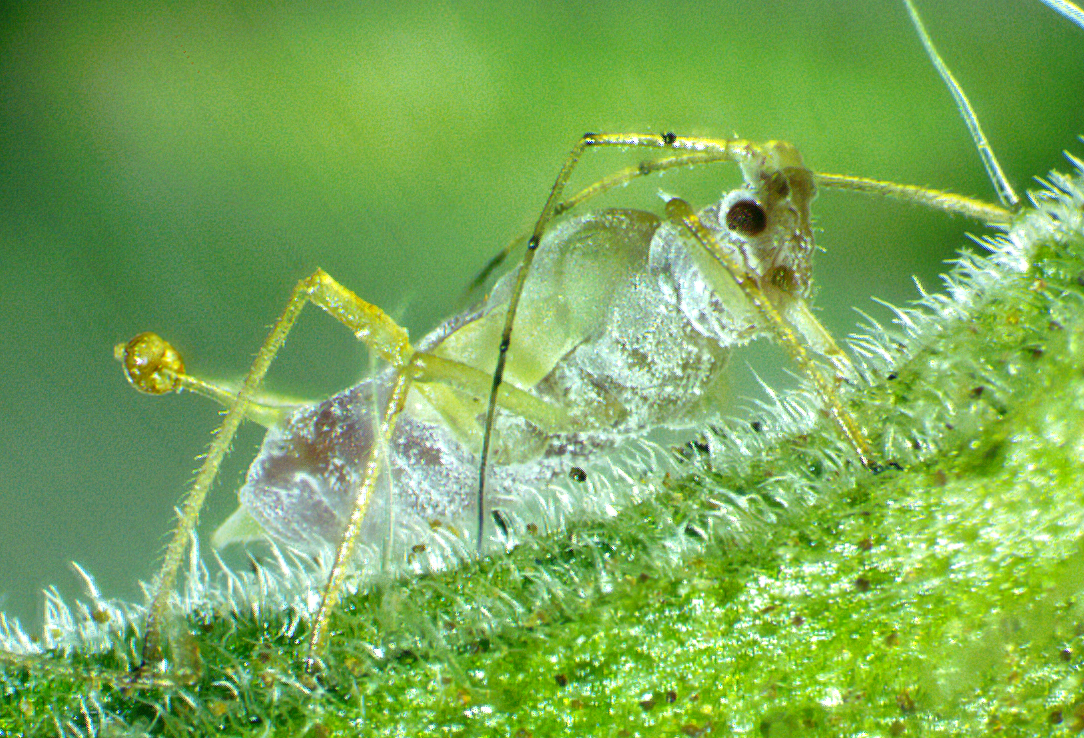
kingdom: Animalia
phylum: Arthropoda
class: Insecta
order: Hemiptera
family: Aphididae
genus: Macrosiphum
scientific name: Macrosiphum euphorbiae
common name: Potato aphid
